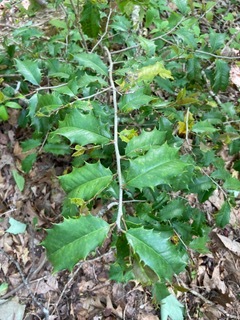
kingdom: Plantae
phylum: Tracheophyta
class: Magnoliopsida
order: Aquifoliales
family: Aquifoliaceae
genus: Ilex
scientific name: Ilex opaca
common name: American holly
